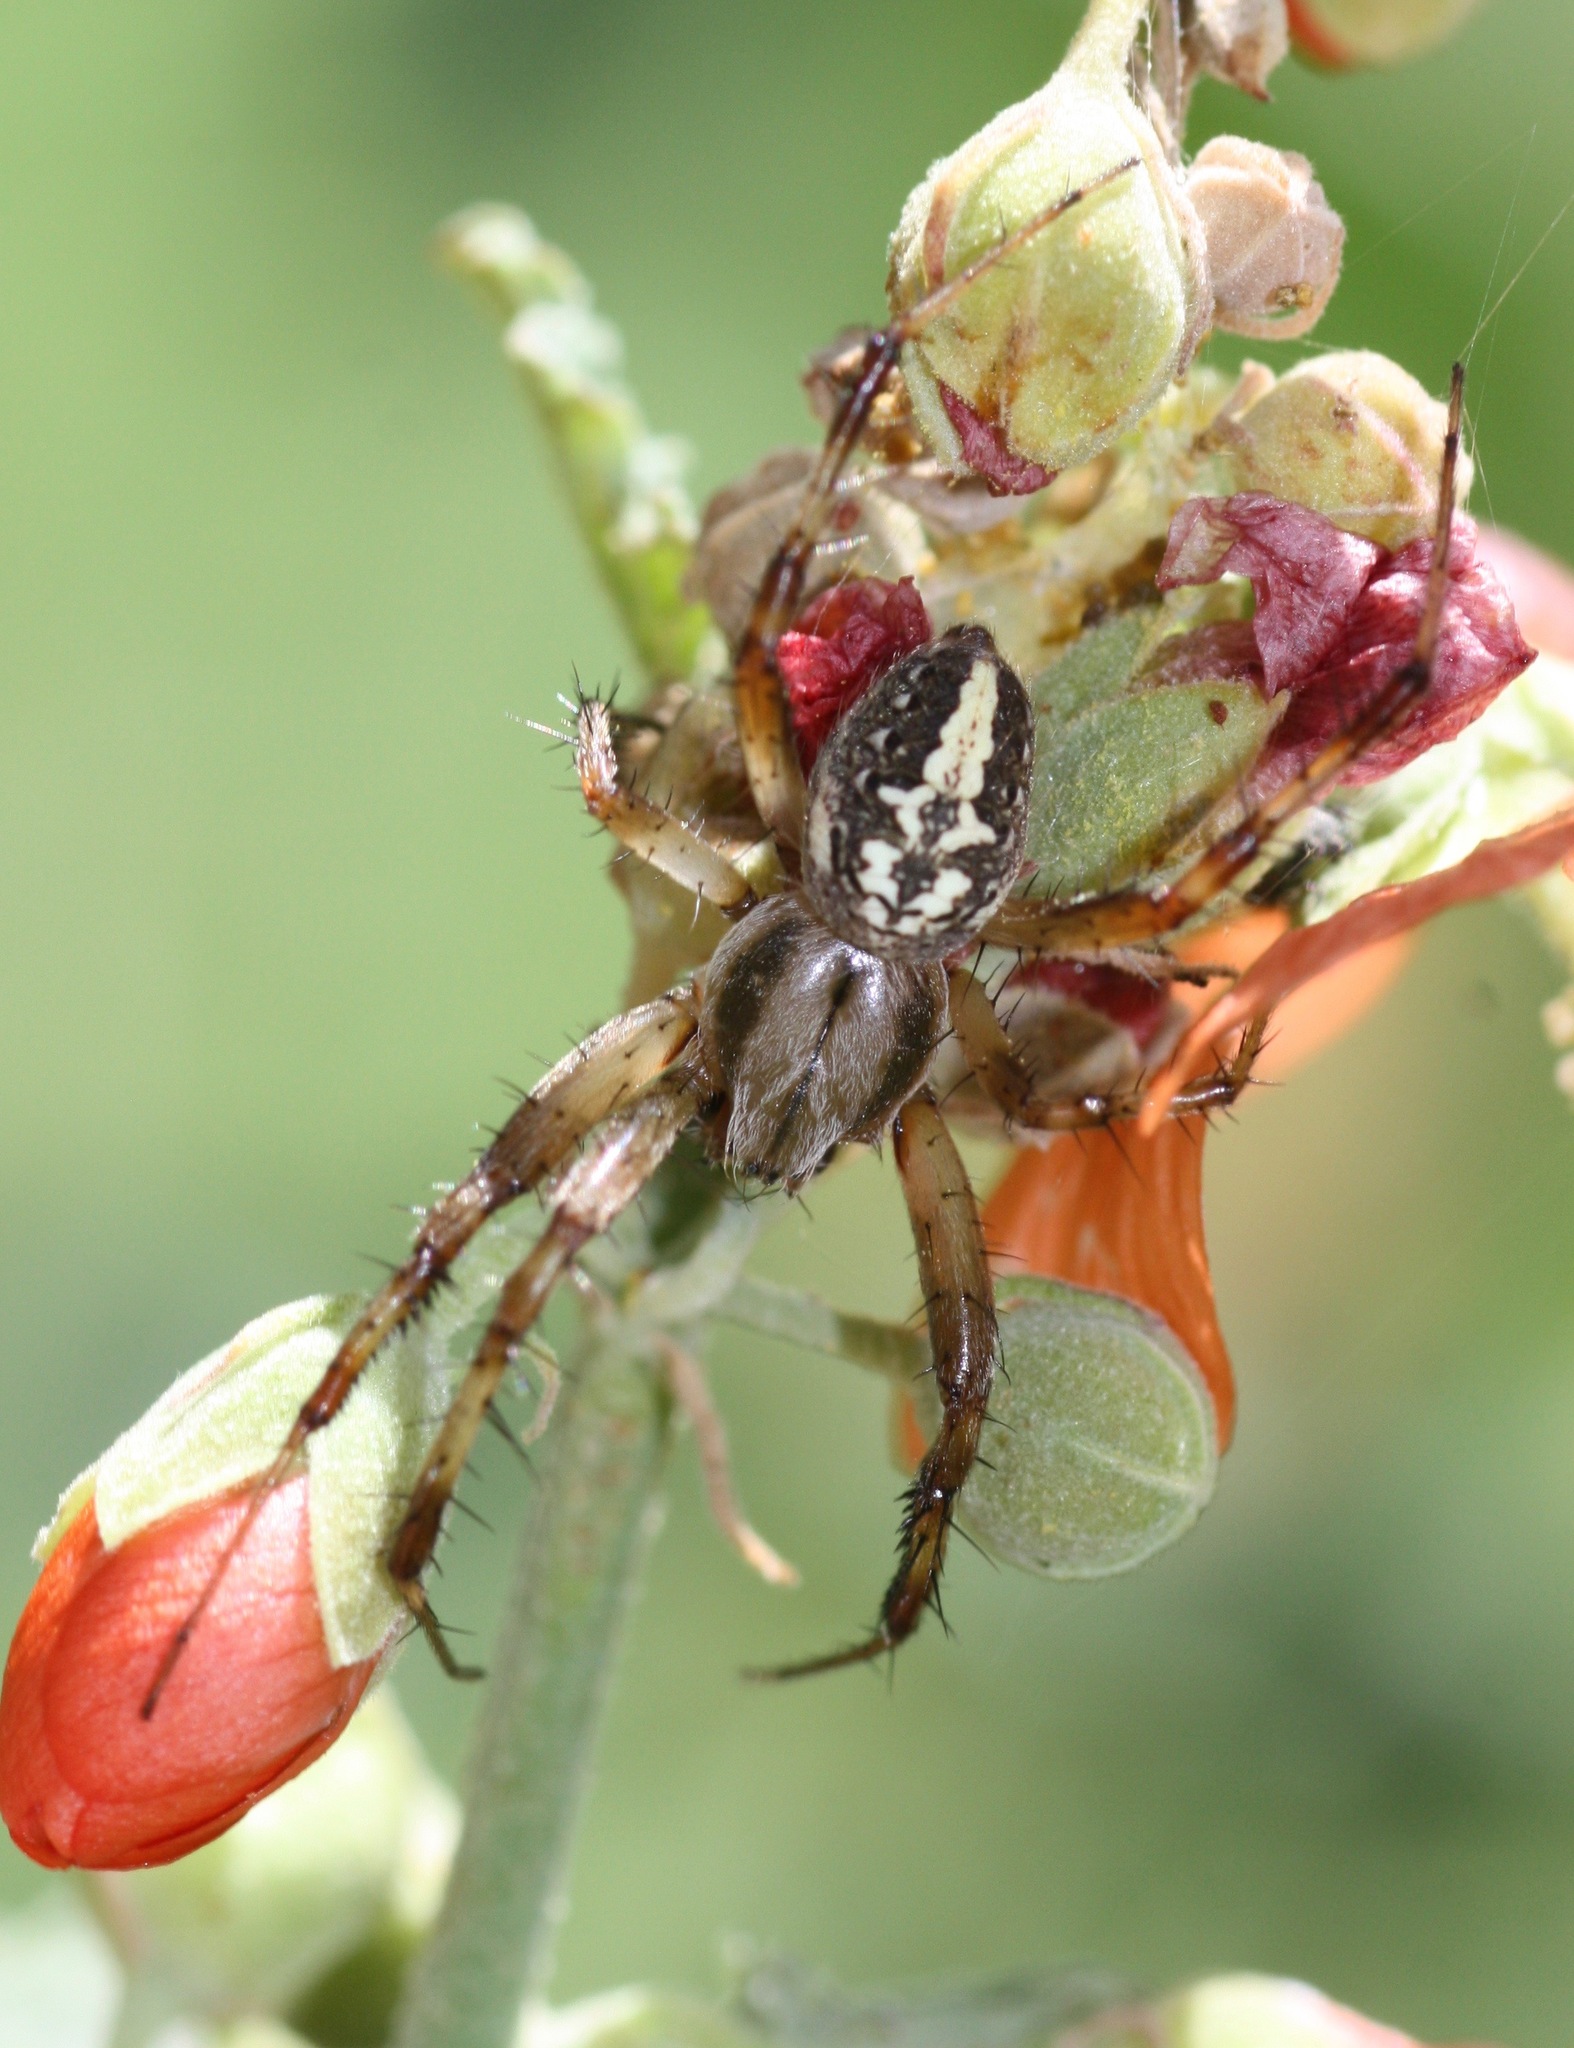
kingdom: Animalia
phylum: Arthropoda
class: Arachnida
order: Araneae
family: Araneidae
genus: Neoscona
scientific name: Neoscona oaxacensis
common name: Orb weavers
